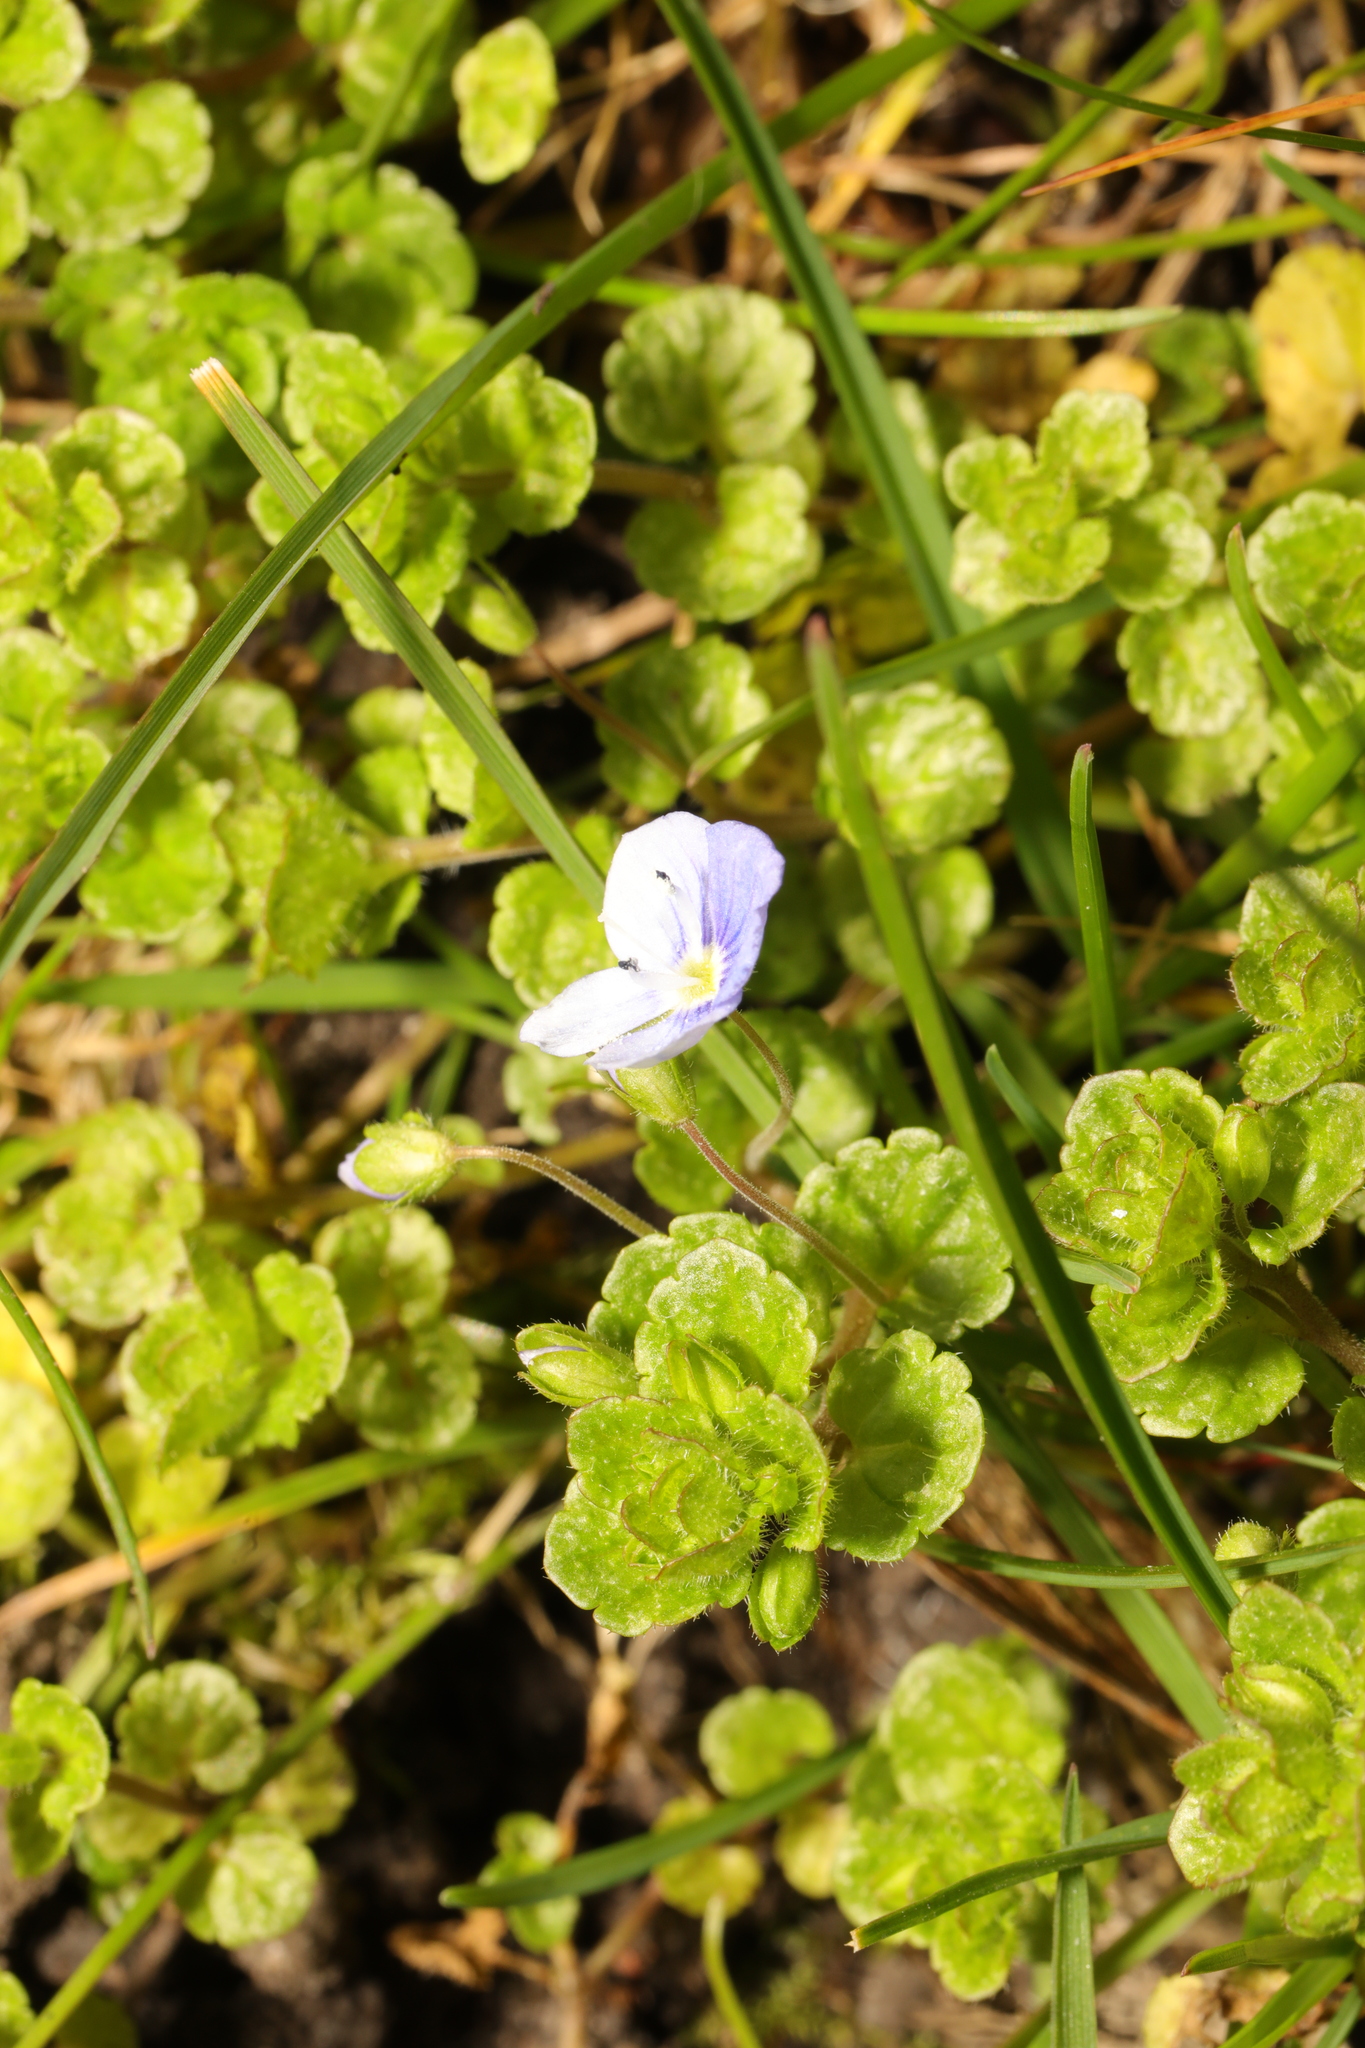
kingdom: Plantae
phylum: Tracheophyta
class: Magnoliopsida
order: Lamiales
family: Plantaginaceae
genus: Veronica
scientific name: Veronica persica
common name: Common field-speedwell
